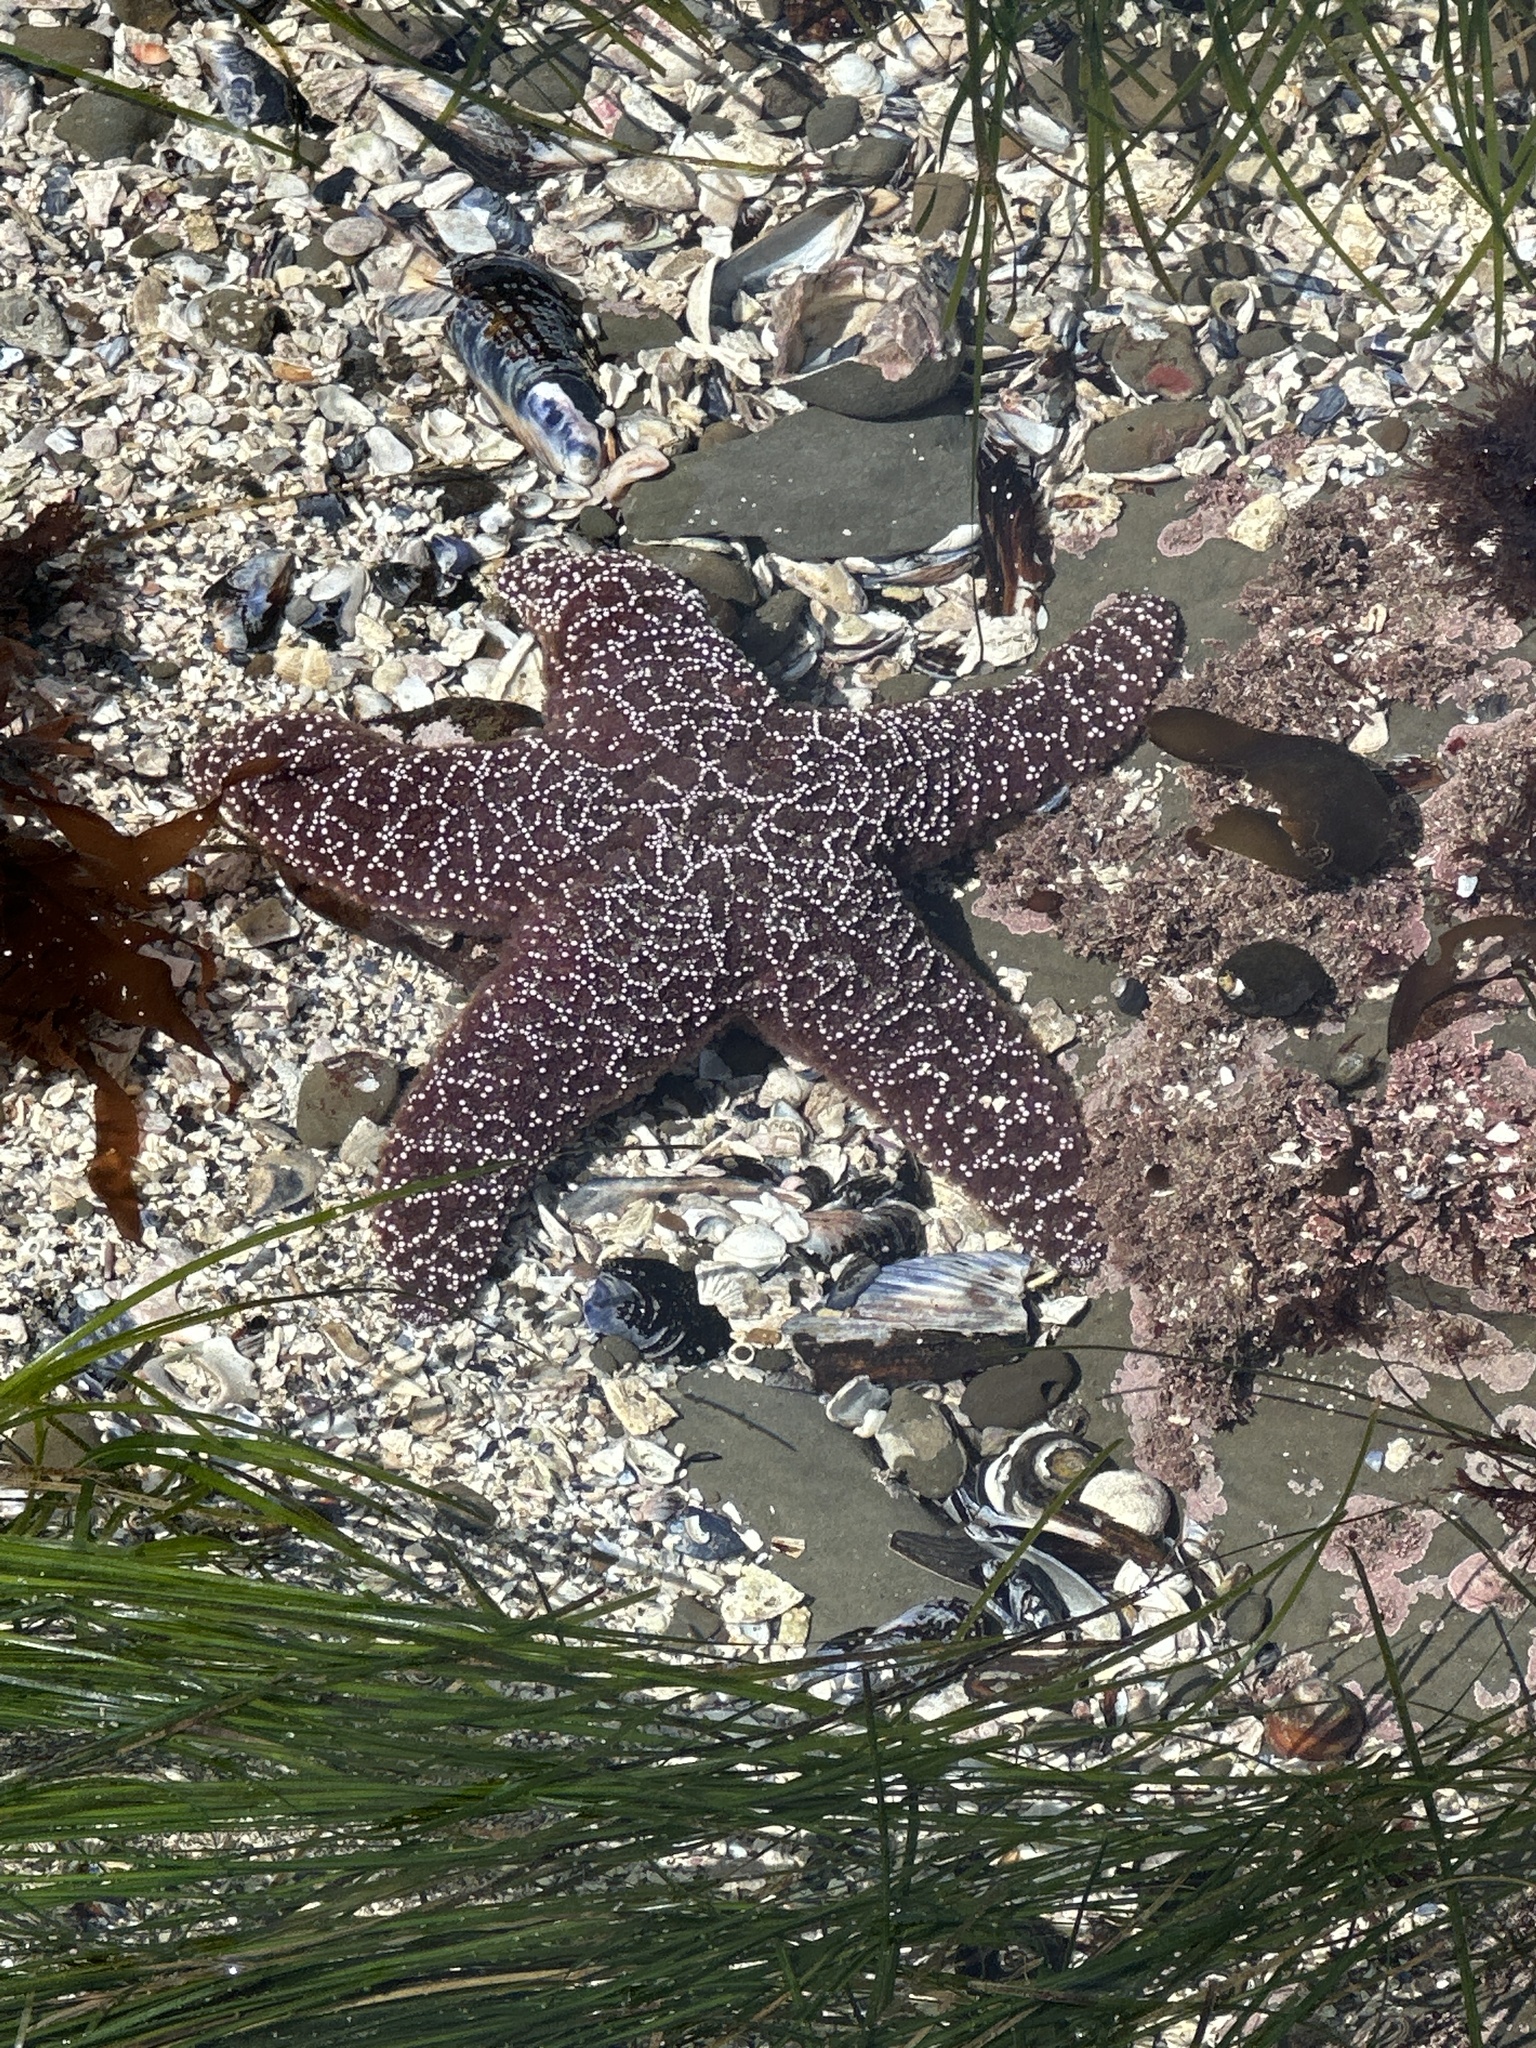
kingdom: Animalia
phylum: Echinodermata
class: Asteroidea
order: Forcipulatida
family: Asteriidae
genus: Pisaster
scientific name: Pisaster ochraceus
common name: Ochre stars
